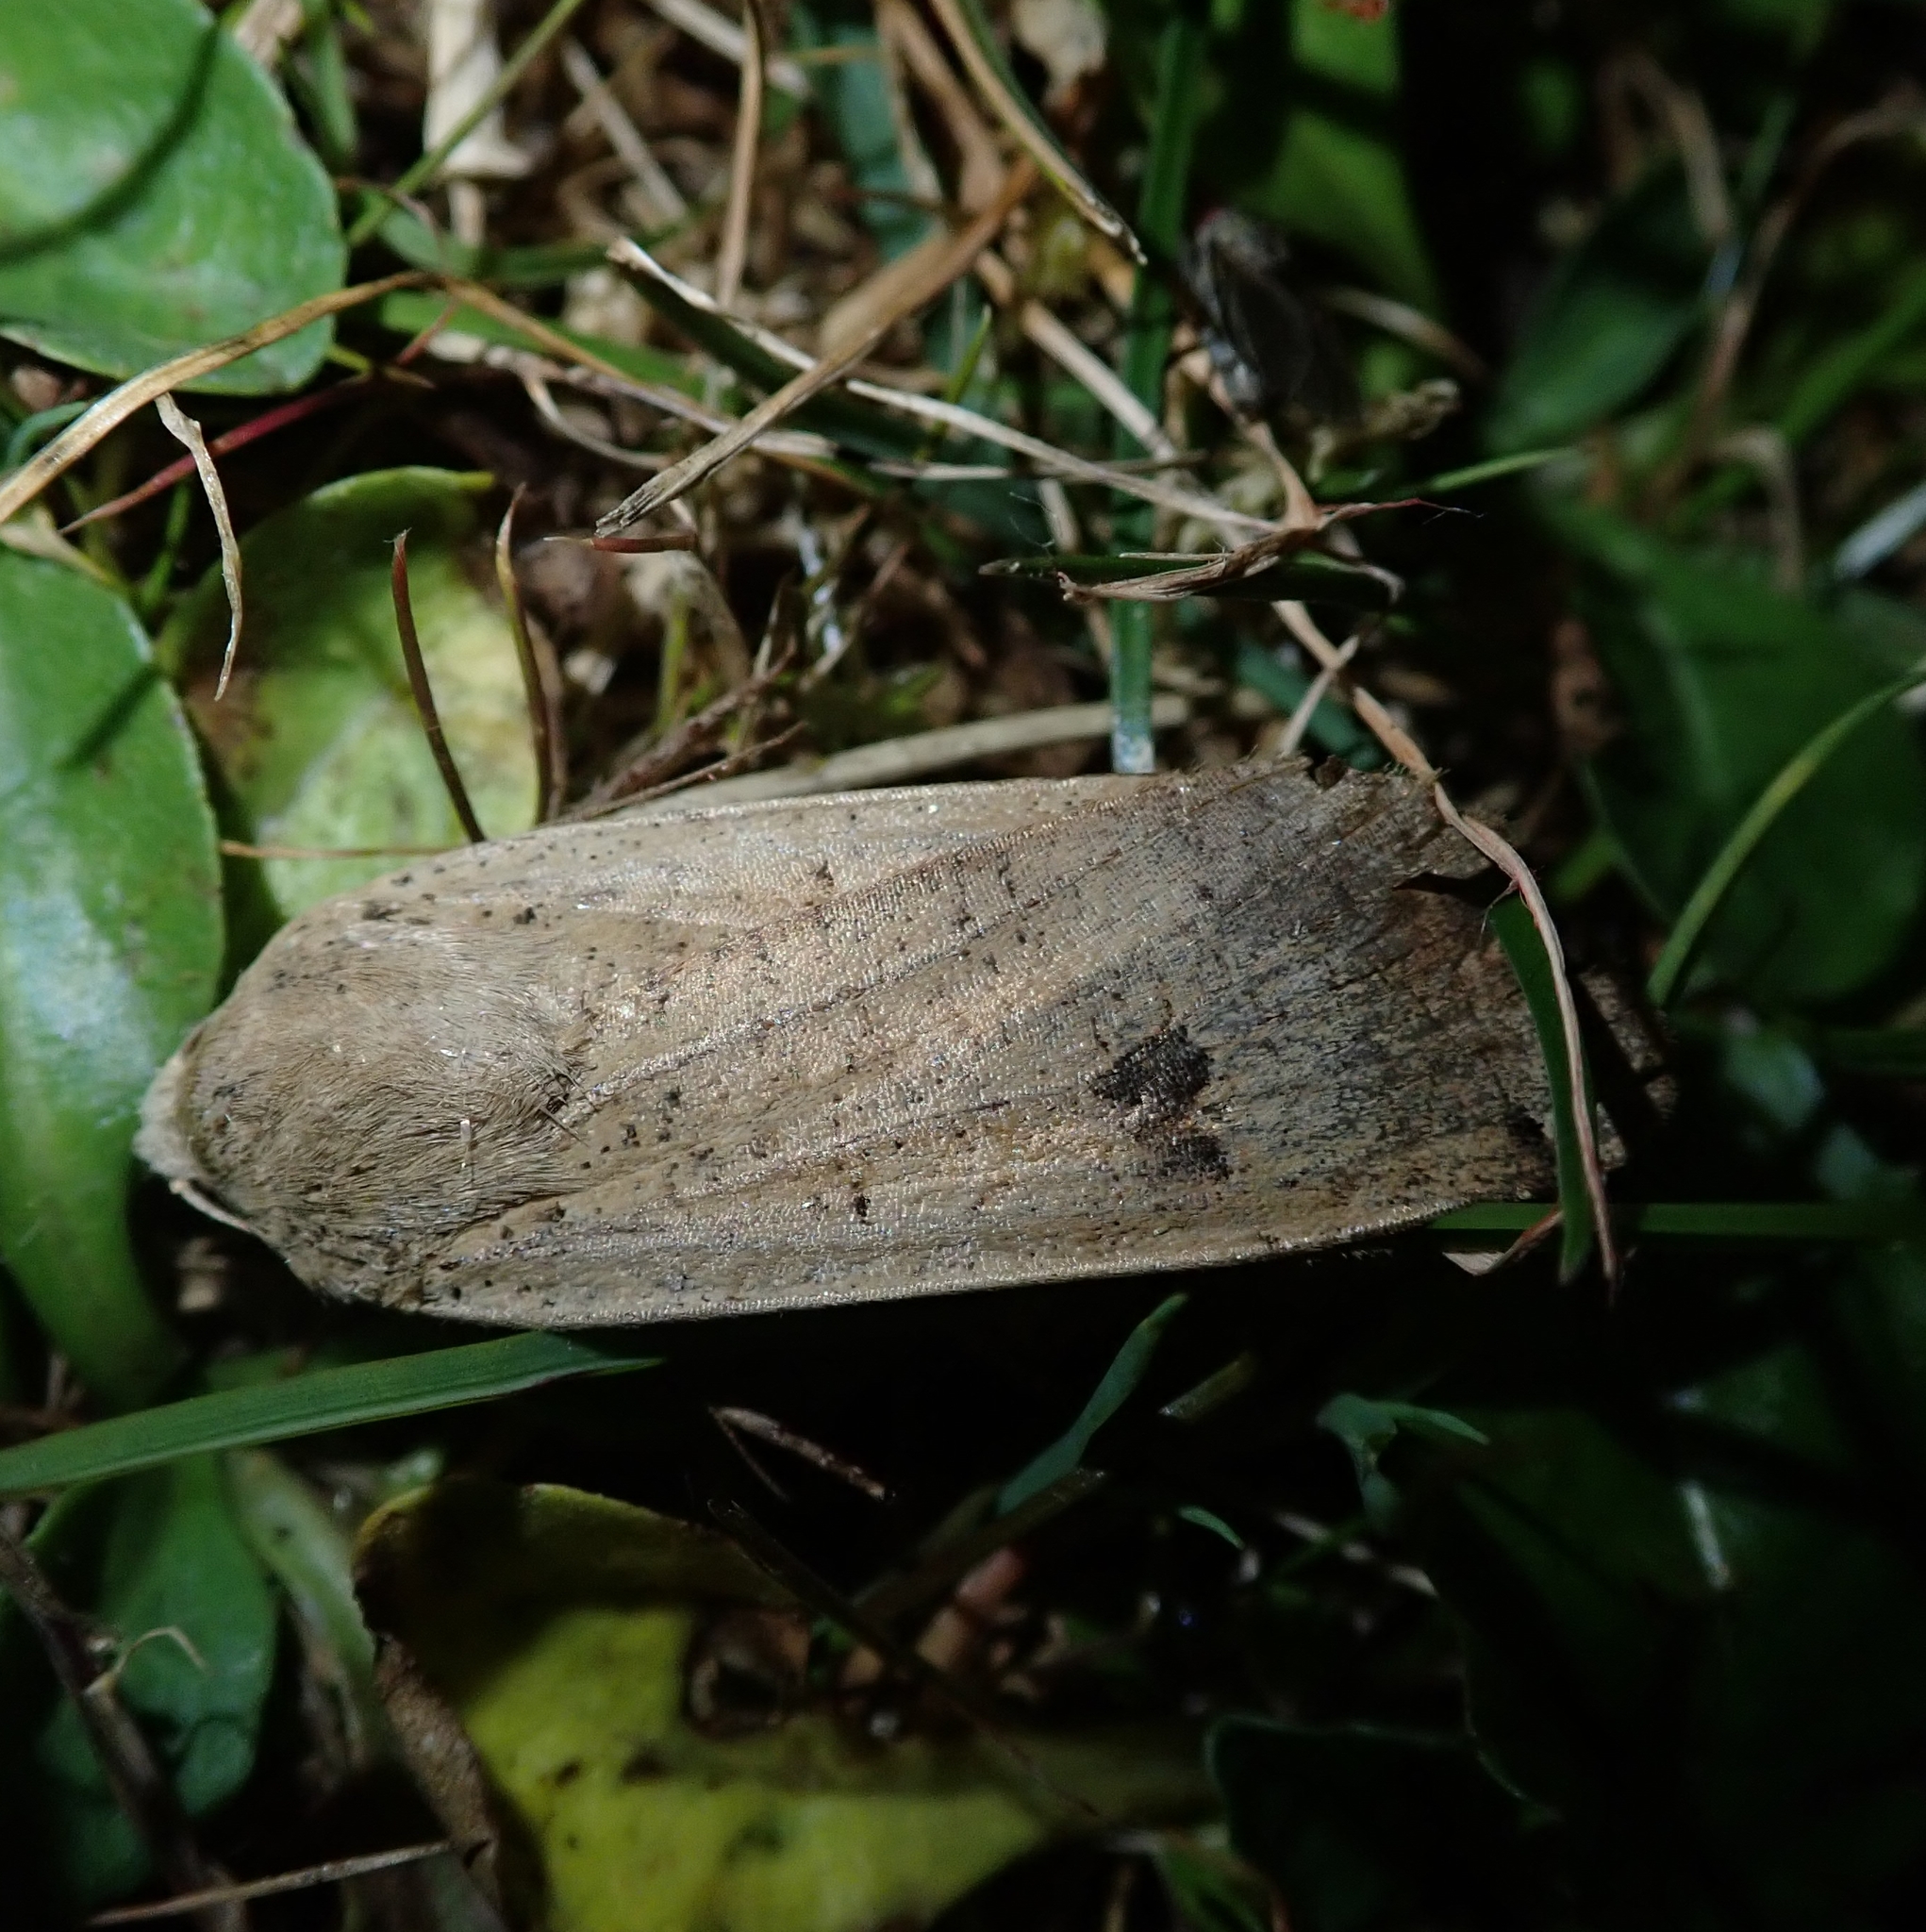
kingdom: Animalia
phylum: Arthropoda
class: Insecta
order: Lepidoptera
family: Noctuidae
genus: Noctua
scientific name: Noctua pronuba
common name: Large yellow underwing
